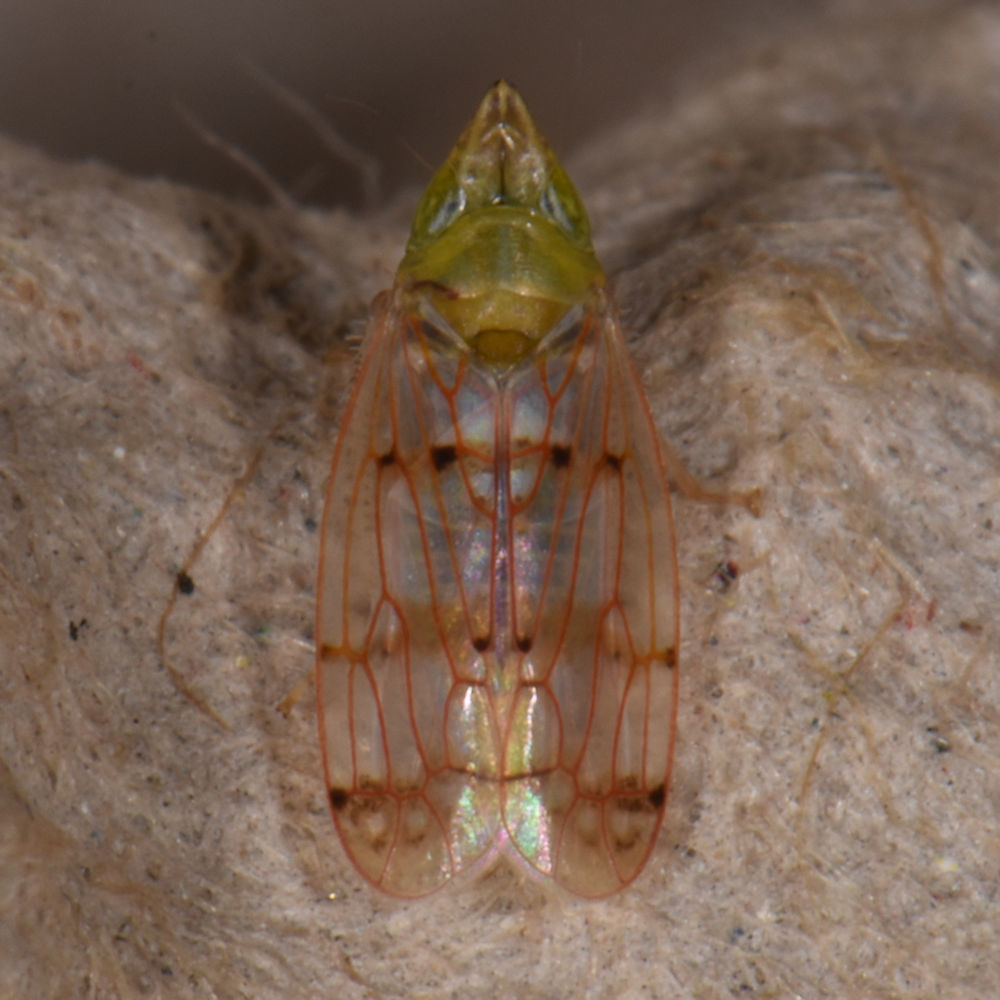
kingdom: Animalia
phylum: Arthropoda
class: Insecta
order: Hemiptera
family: Cicadellidae
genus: Japananus
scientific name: Japananus hyalinus
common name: The japanese maple leafhopper
